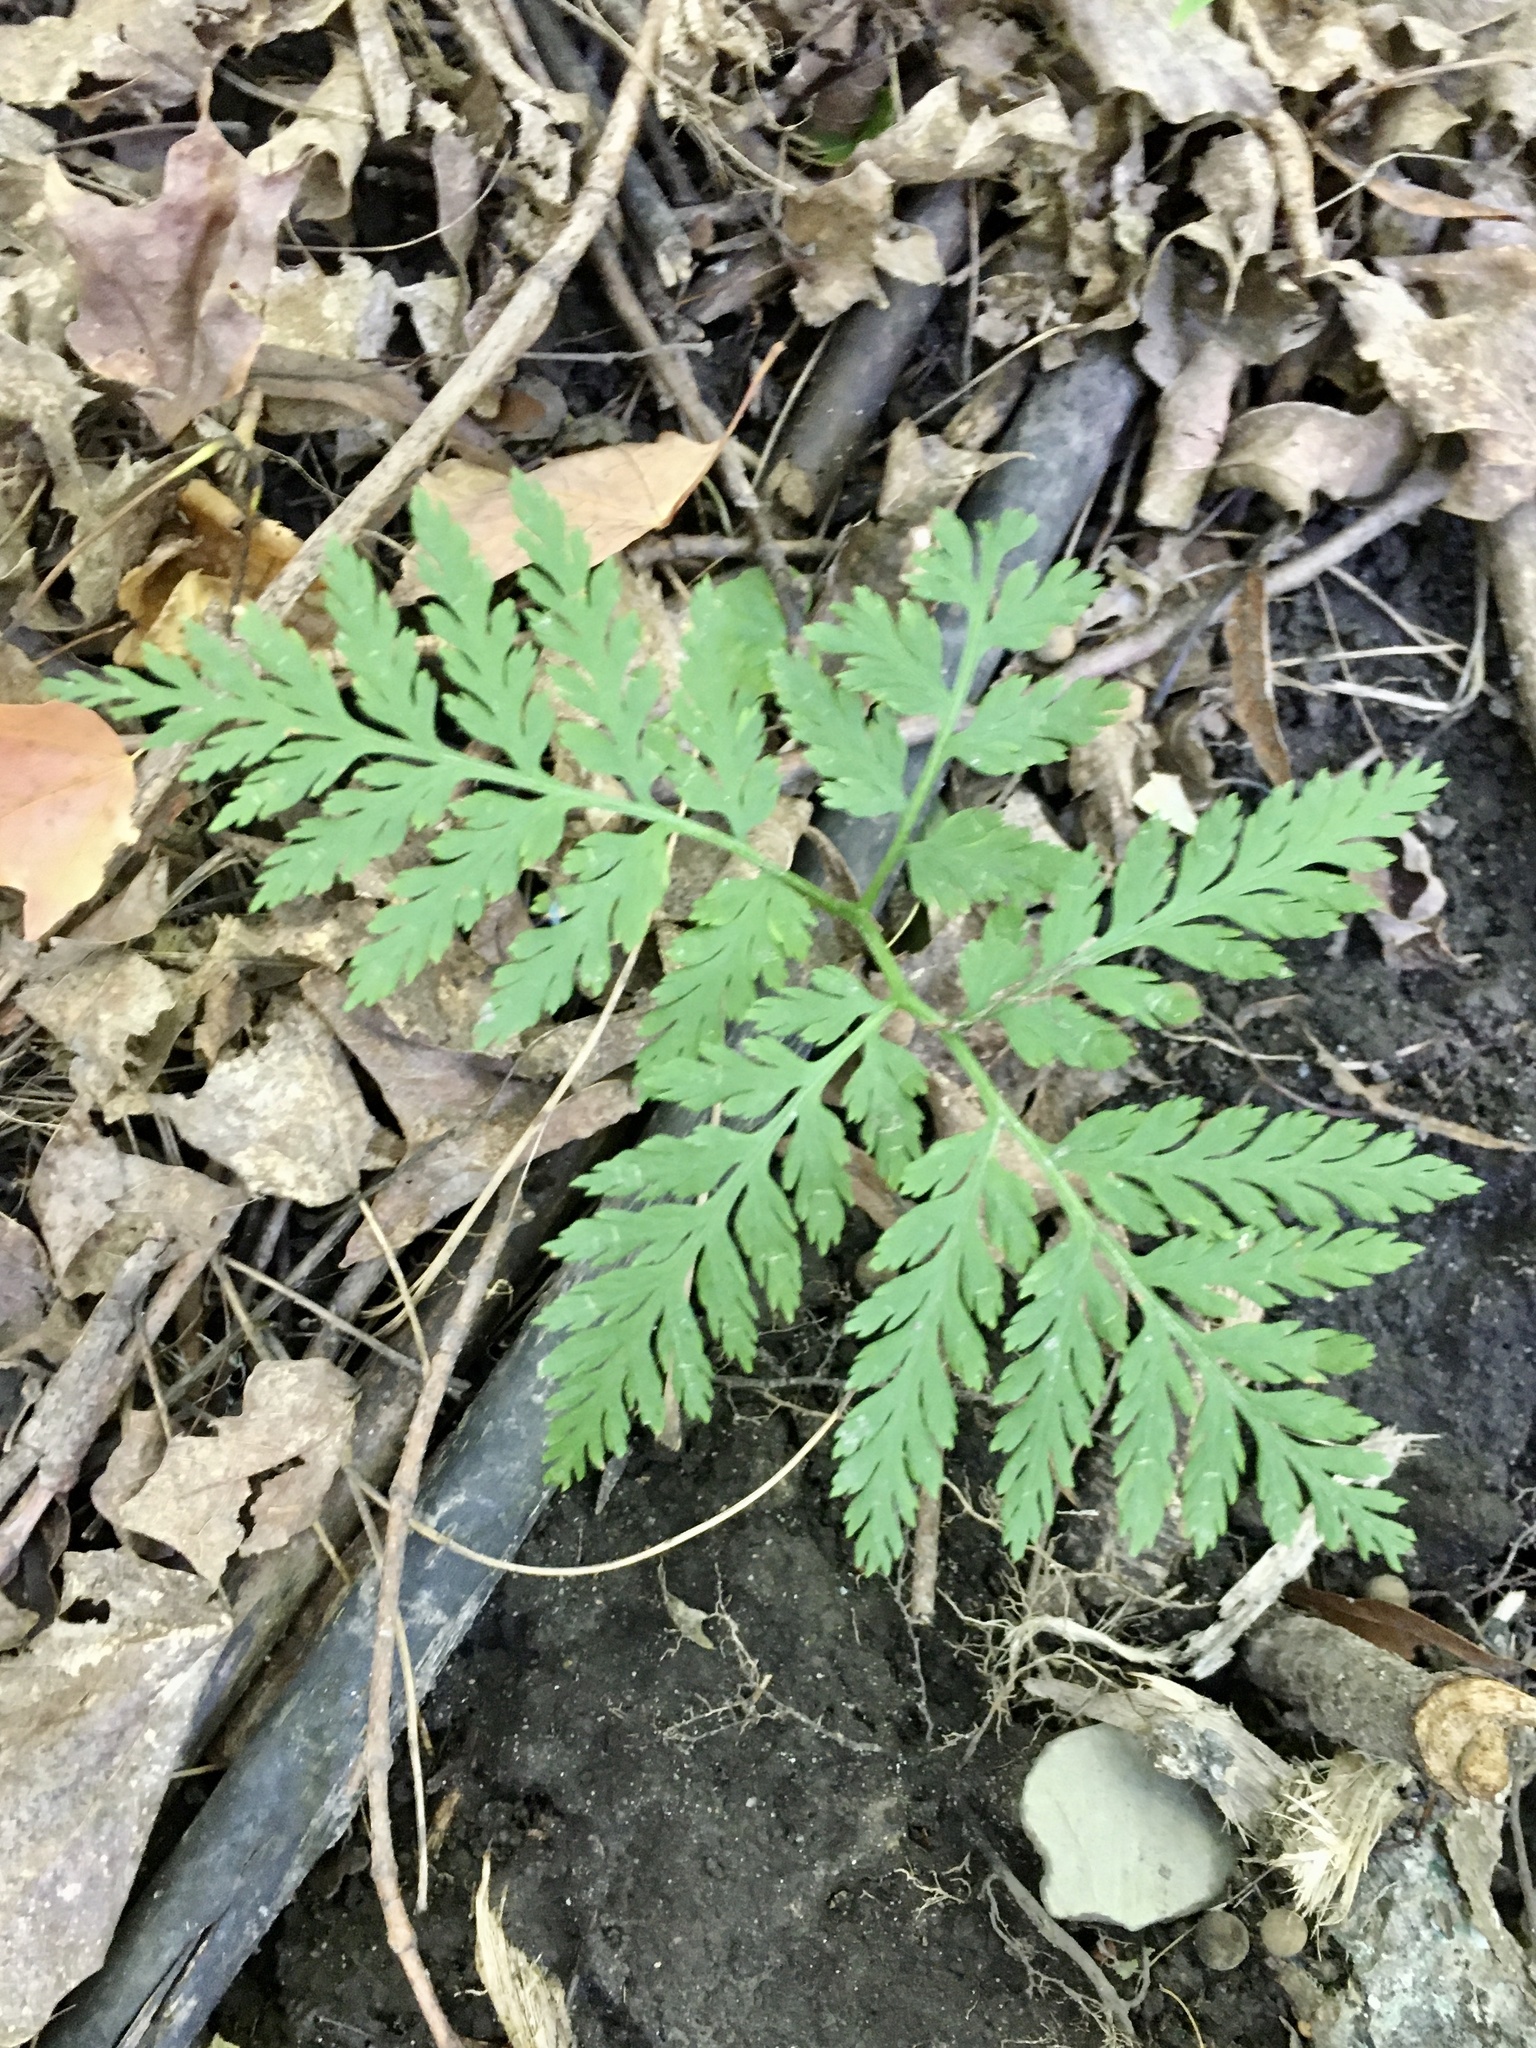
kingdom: Plantae
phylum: Tracheophyta
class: Polypodiopsida
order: Ophioglossales
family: Ophioglossaceae
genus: Botrypus
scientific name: Botrypus virginianus
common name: Common grapefern
